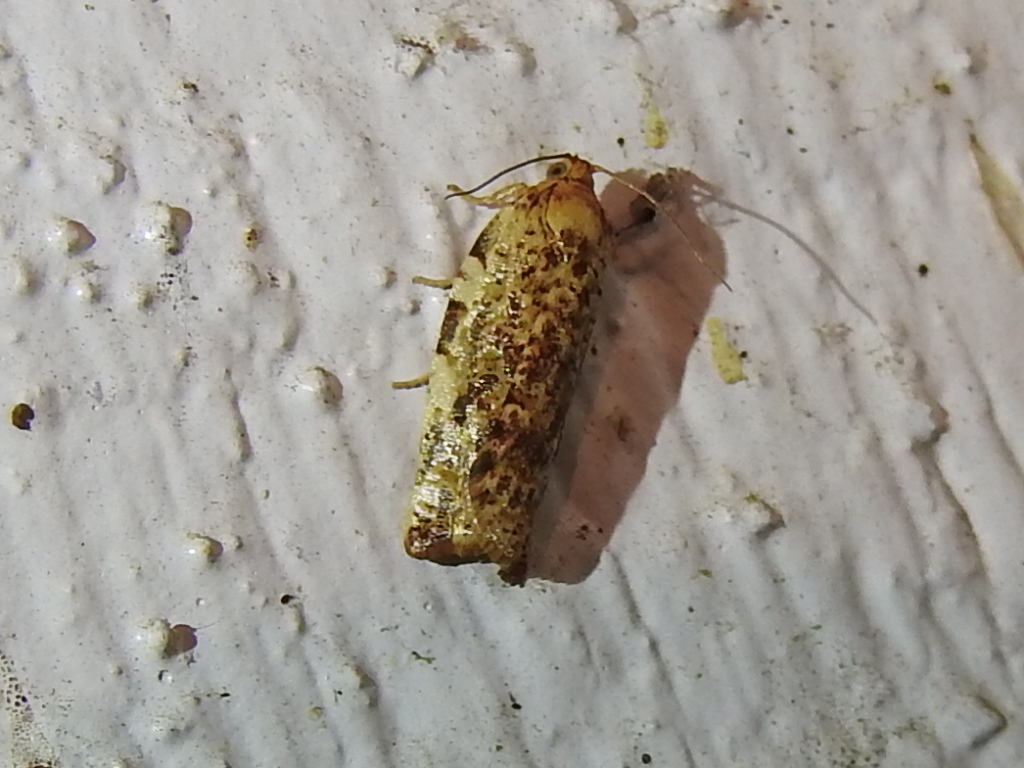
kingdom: Animalia
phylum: Arthropoda
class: Insecta
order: Lepidoptera
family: Tortricidae
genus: Archips
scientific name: Archips argyrospila
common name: Fruit-tree leafroller moth
